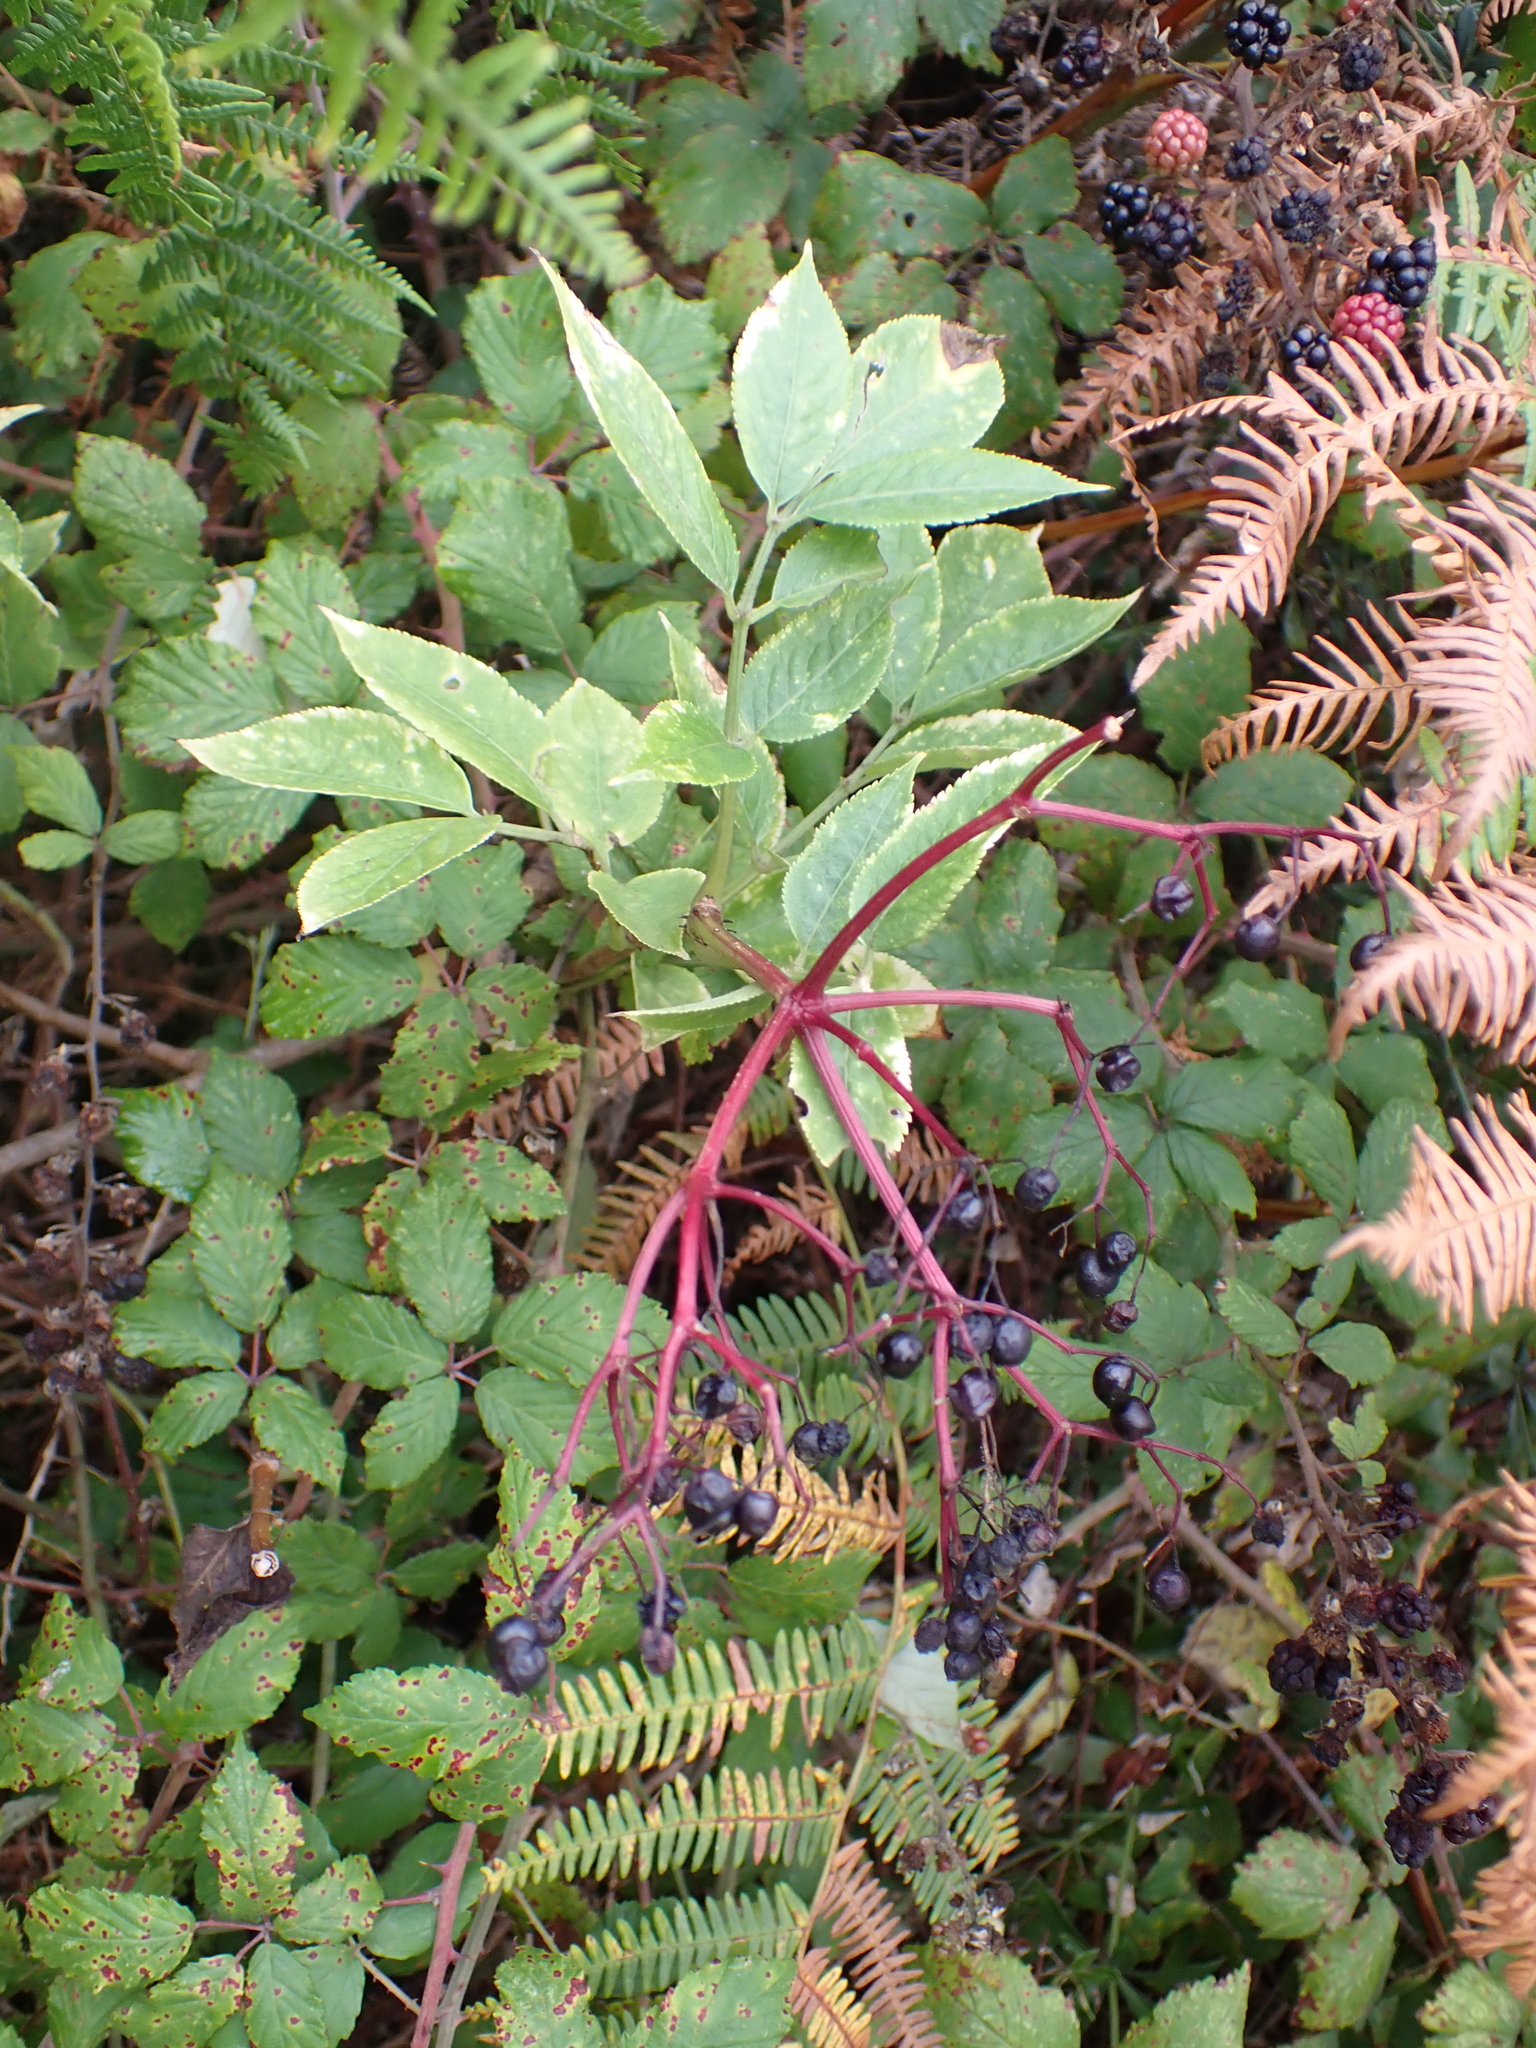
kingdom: Plantae
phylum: Tracheophyta
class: Magnoliopsida
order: Dipsacales
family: Viburnaceae
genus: Sambucus
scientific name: Sambucus nigra
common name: Elder
